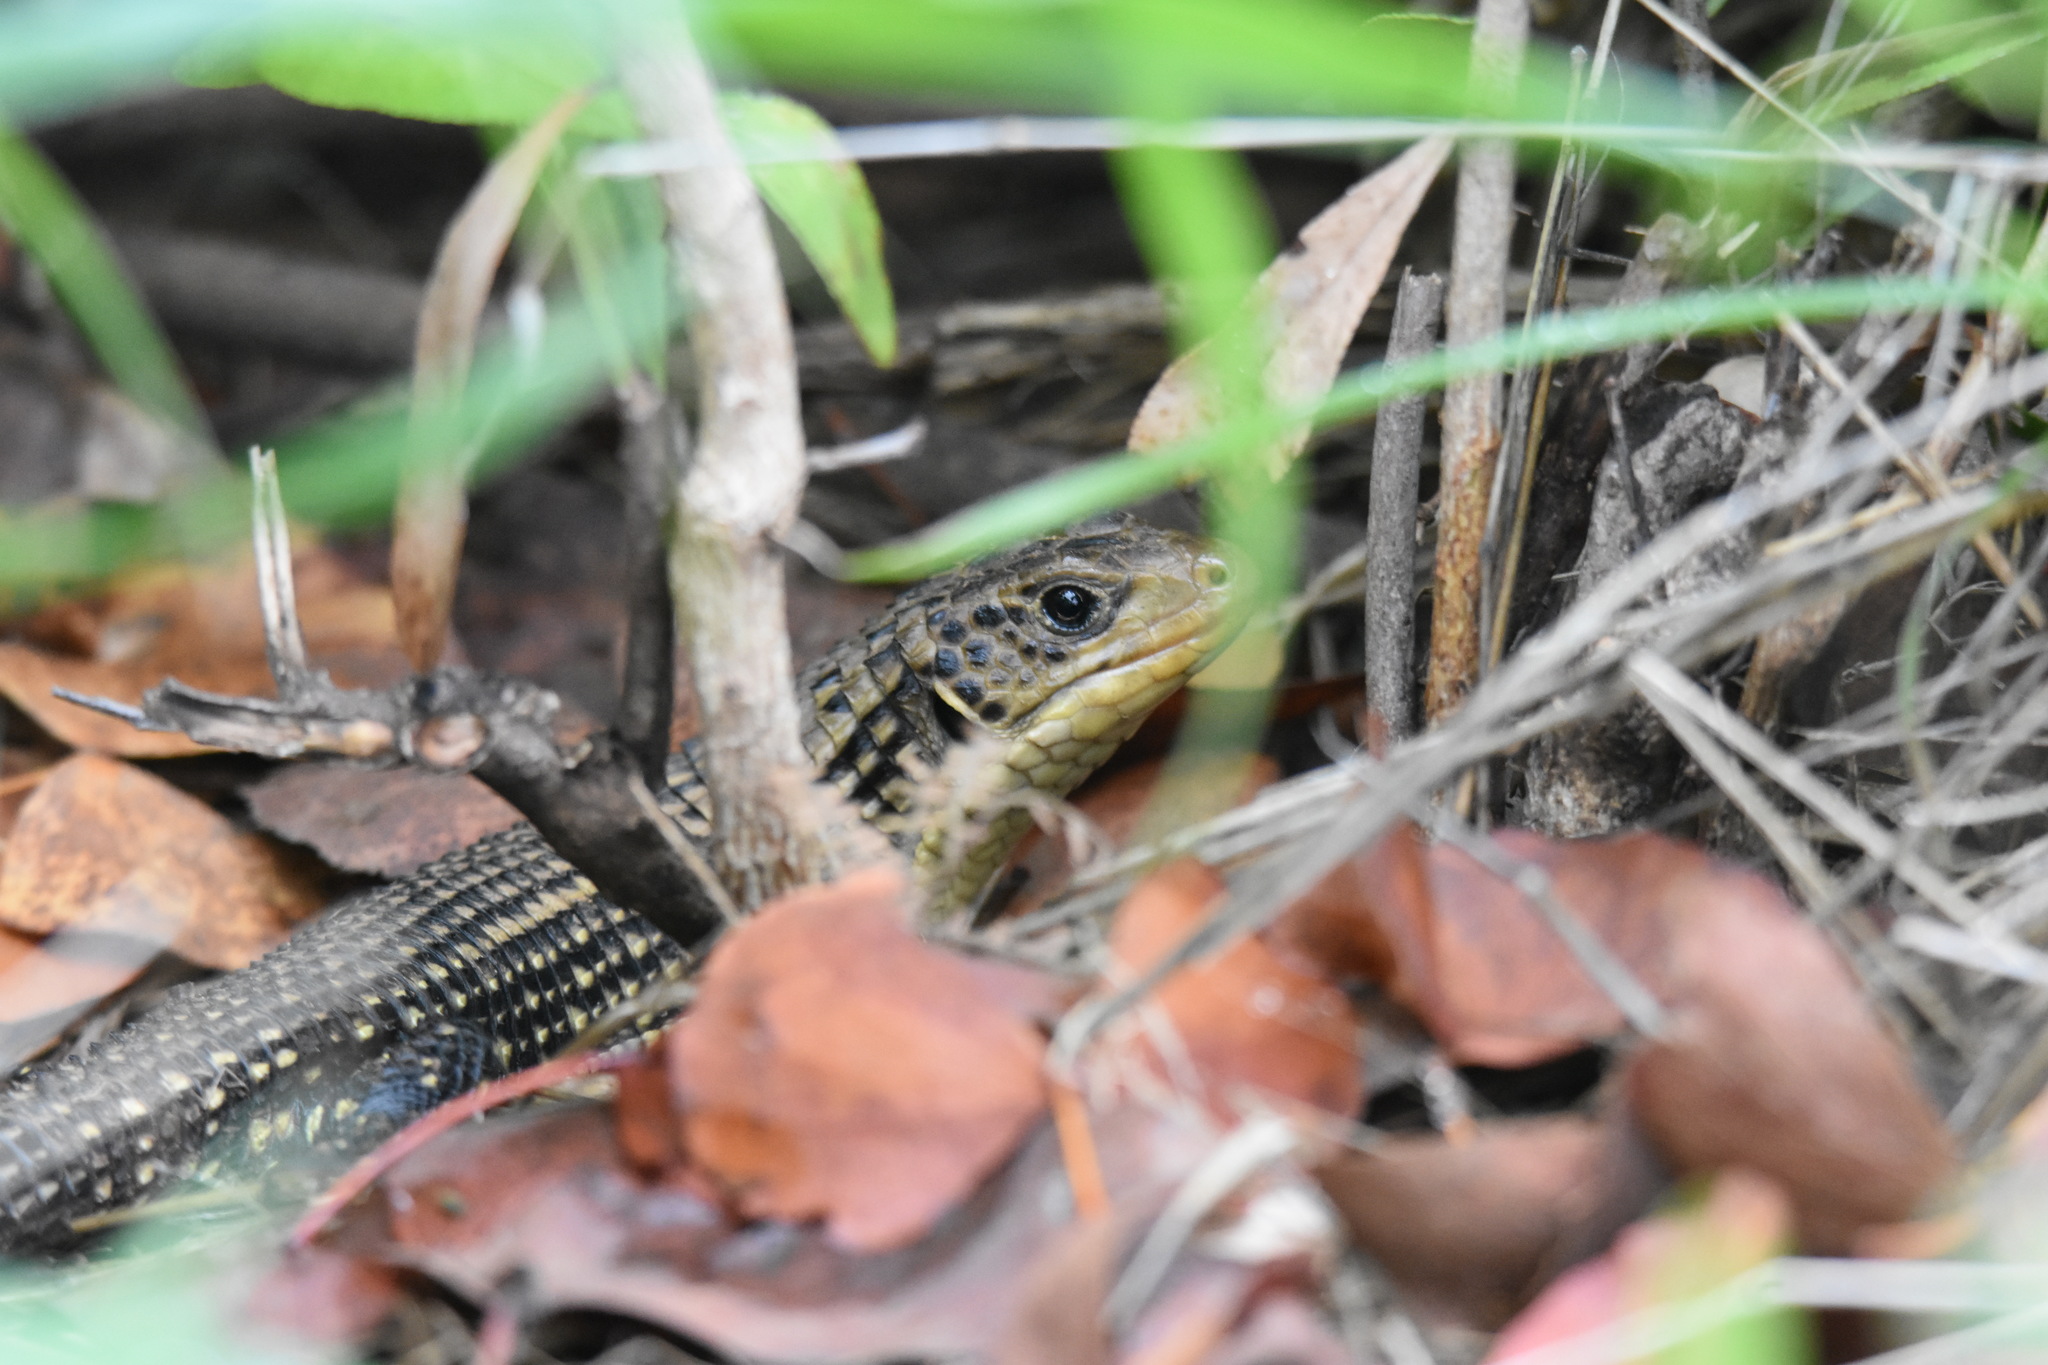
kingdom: Animalia
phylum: Chordata
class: Squamata
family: Gerrhosauridae
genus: Broadleysaurus
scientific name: Broadleysaurus major
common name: Rough-scaled plated lizard
